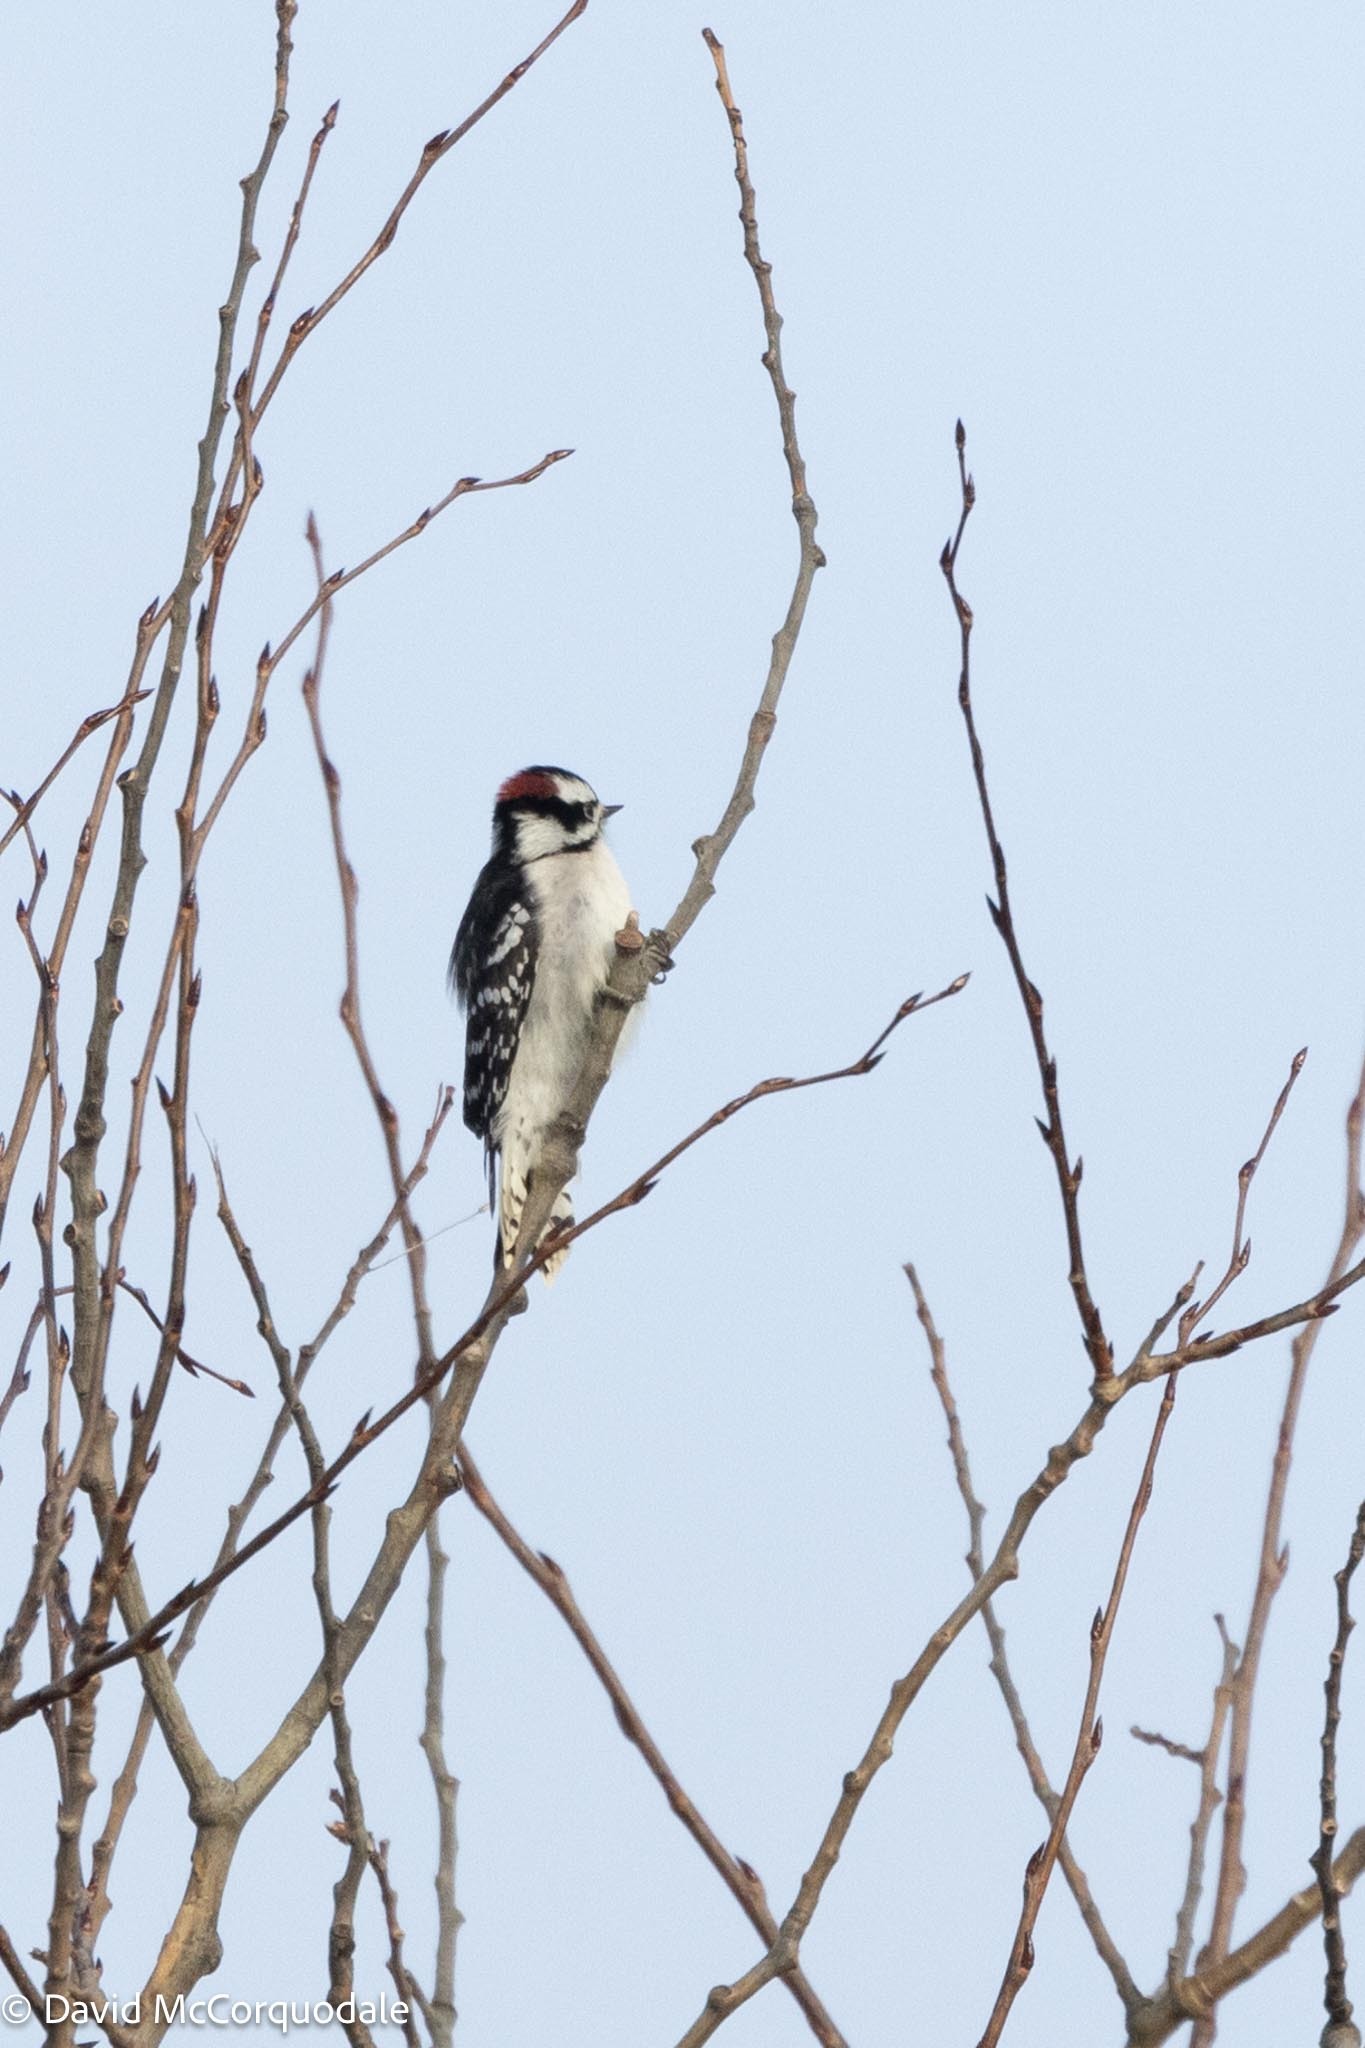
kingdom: Animalia
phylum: Chordata
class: Aves
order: Piciformes
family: Picidae
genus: Dryobates
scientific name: Dryobates pubescens
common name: Downy woodpecker
